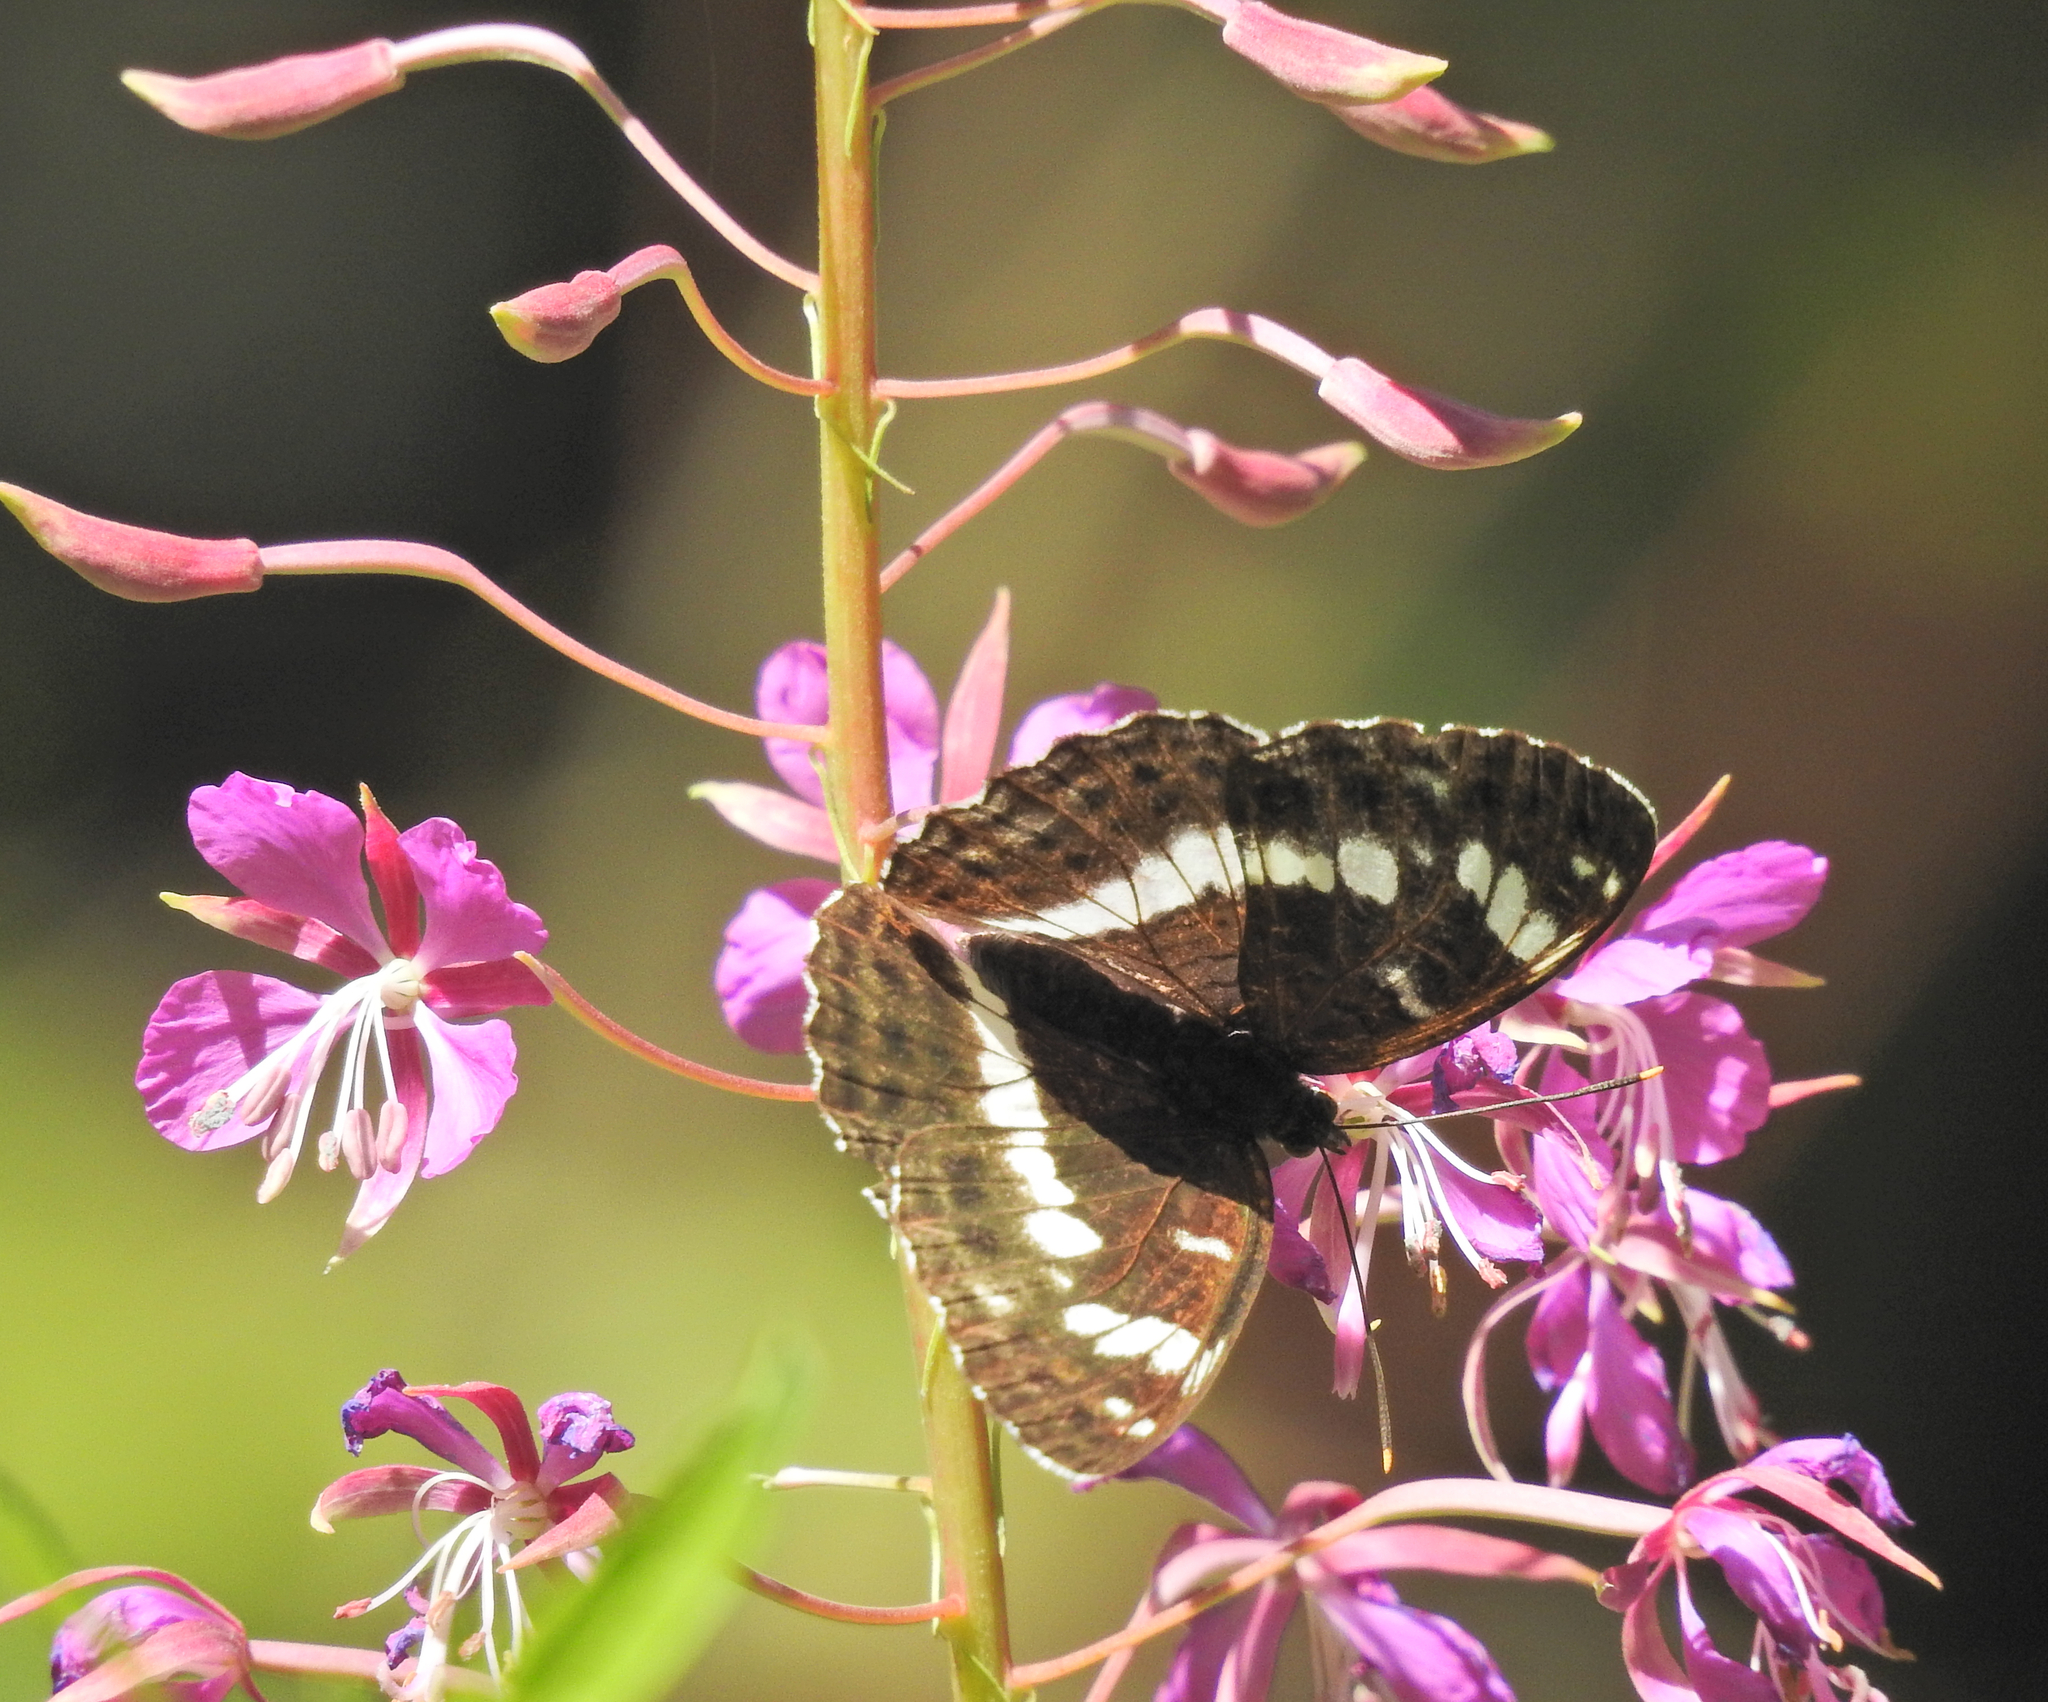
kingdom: Animalia
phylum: Arthropoda
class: Insecta
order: Lepidoptera
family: Nymphalidae
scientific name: Nymphalidae
